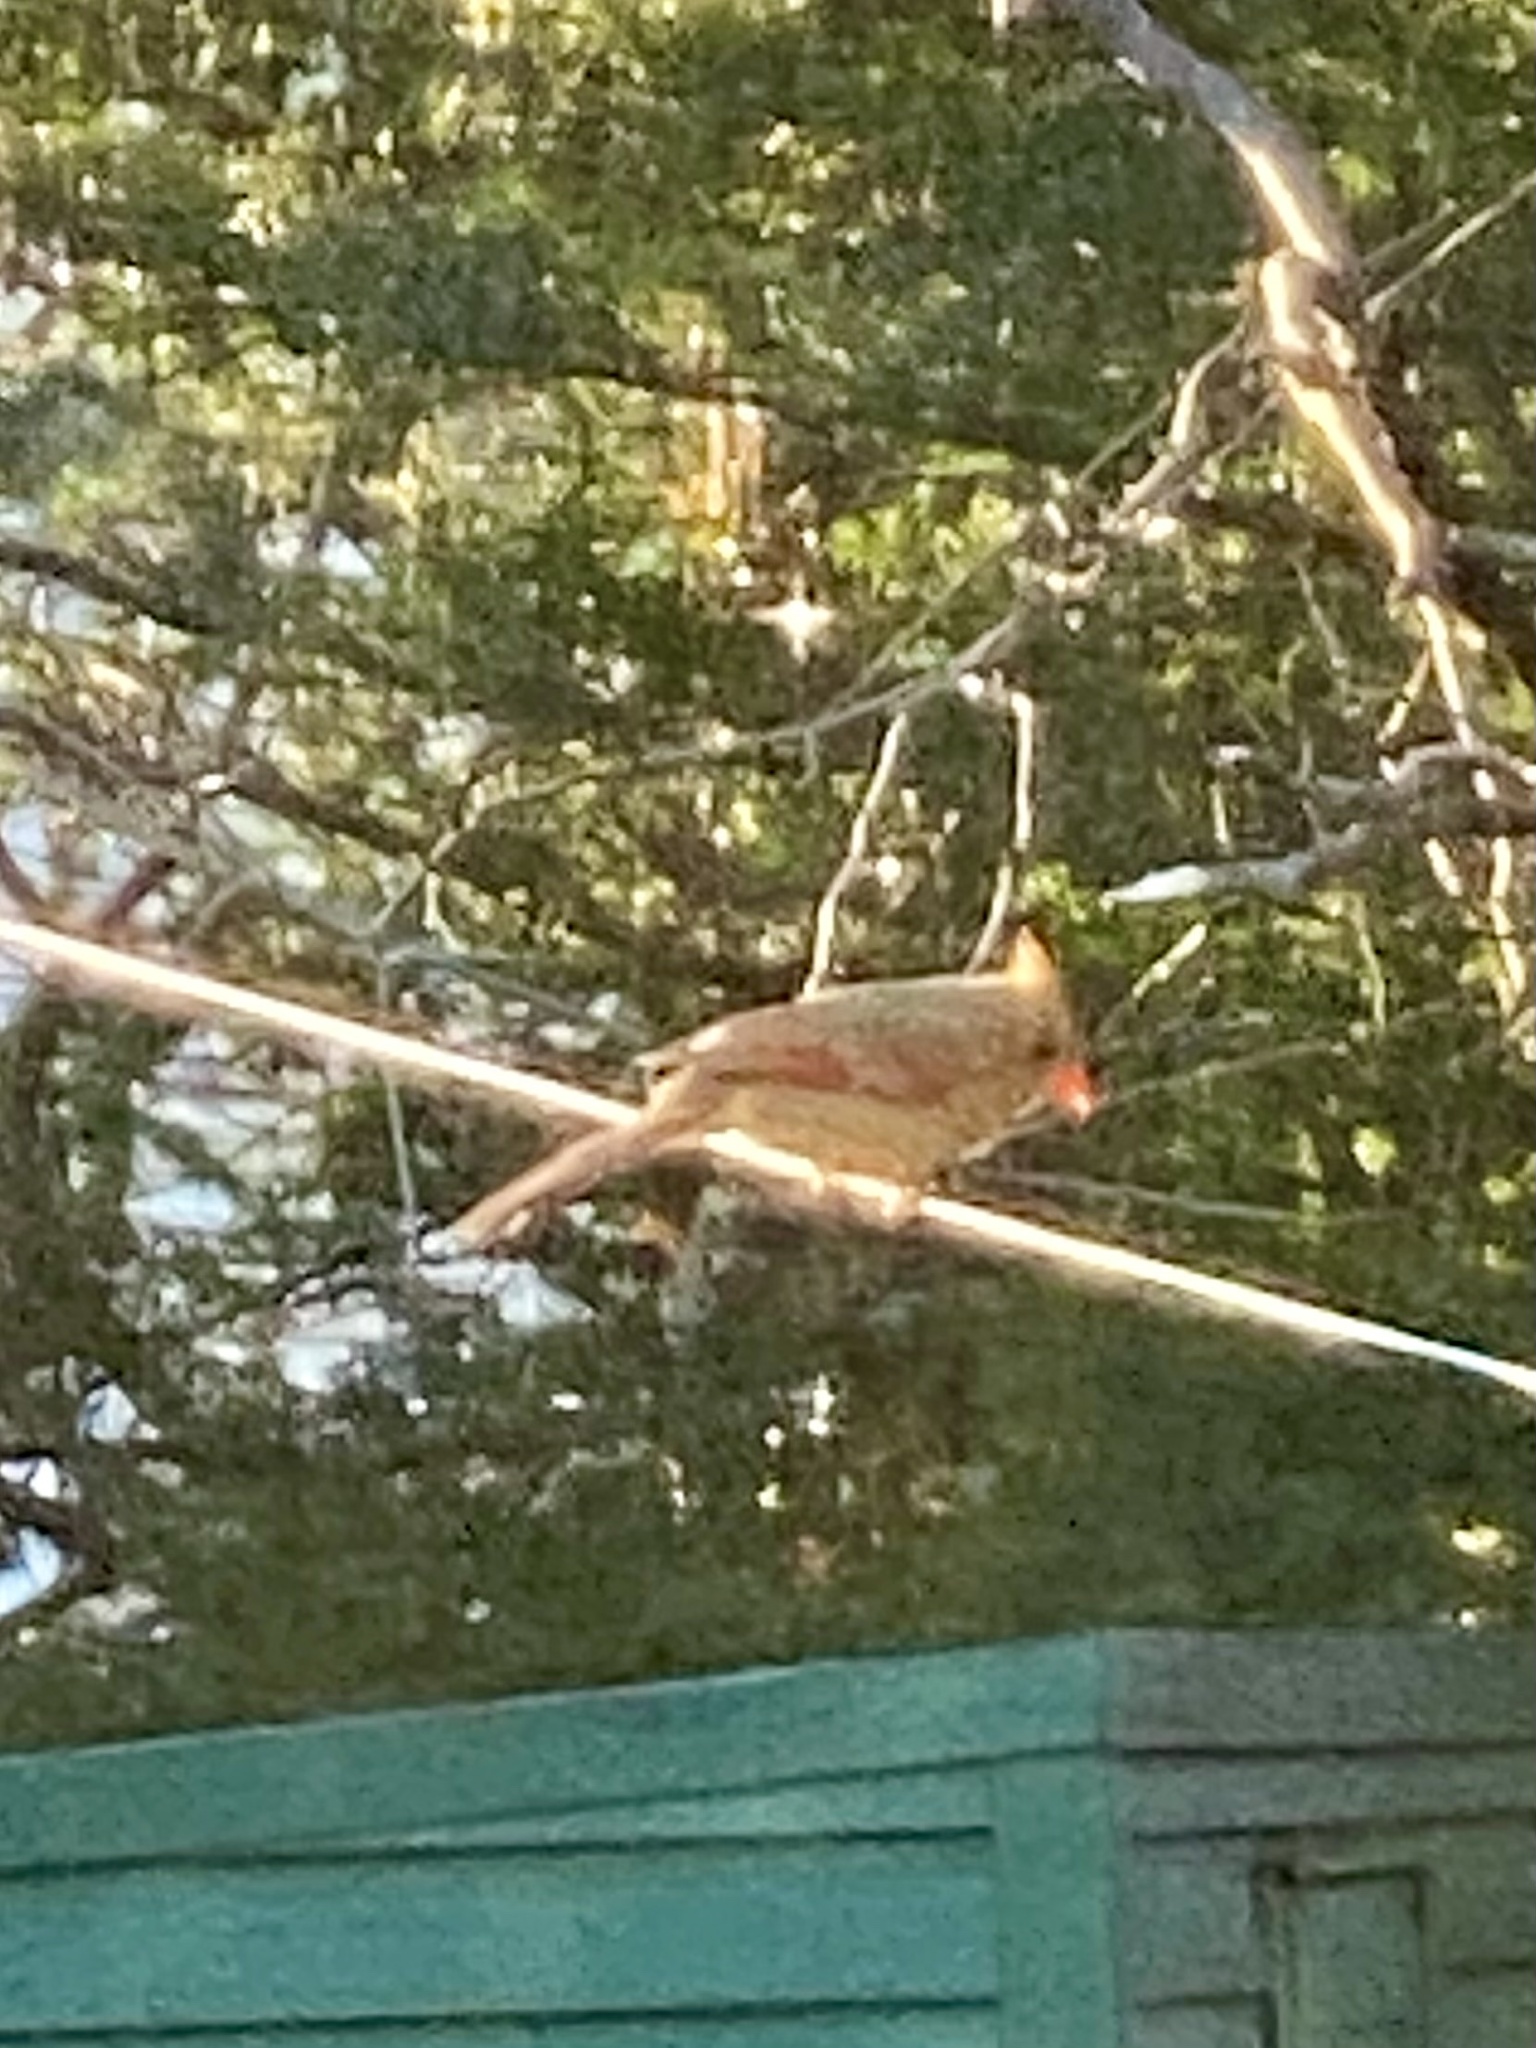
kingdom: Animalia
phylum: Chordata
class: Aves
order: Passeriformes
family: Cardinalidae
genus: Cardinalis
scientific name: Cardinalis cardinalis
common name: Northern cardinal
